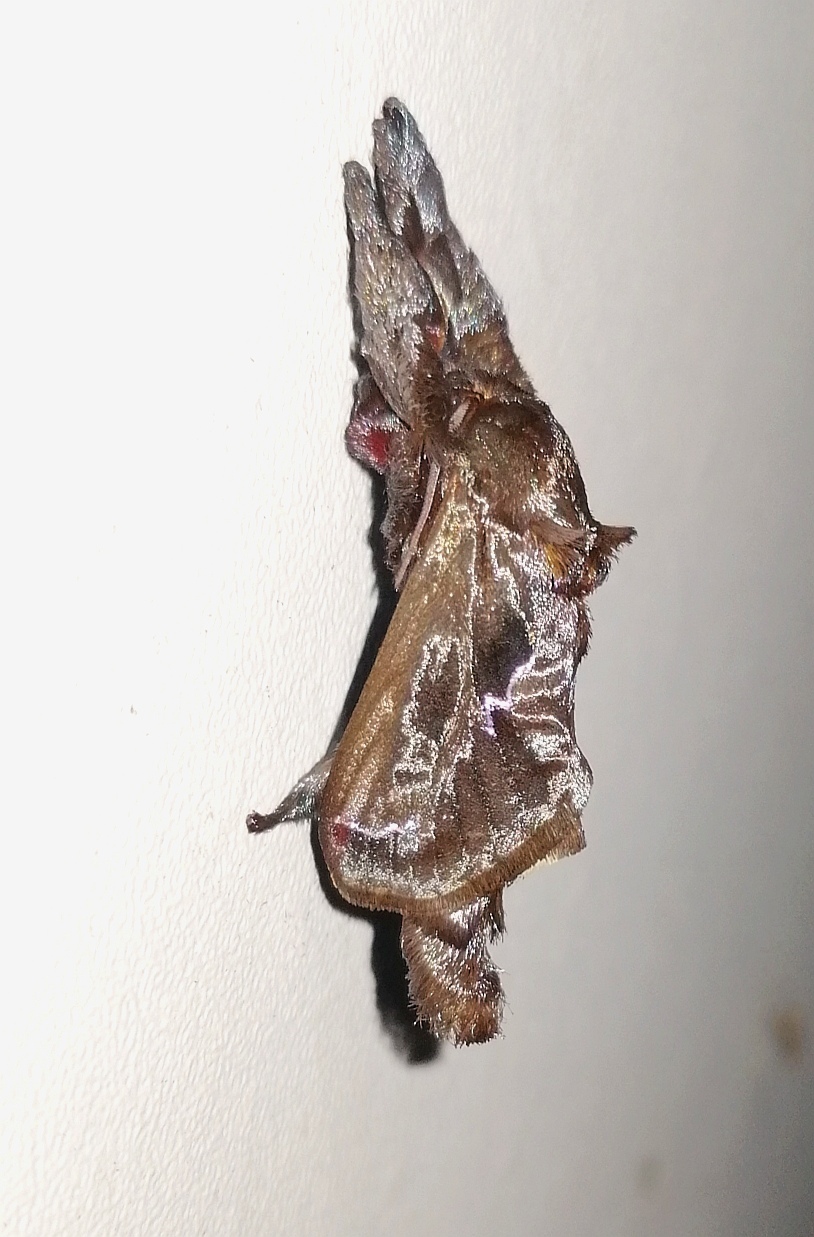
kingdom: Animalia
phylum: Arthropoda
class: Insecta
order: Lepidoptera
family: Limacodidae
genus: Sibine
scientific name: Sibine nesea
